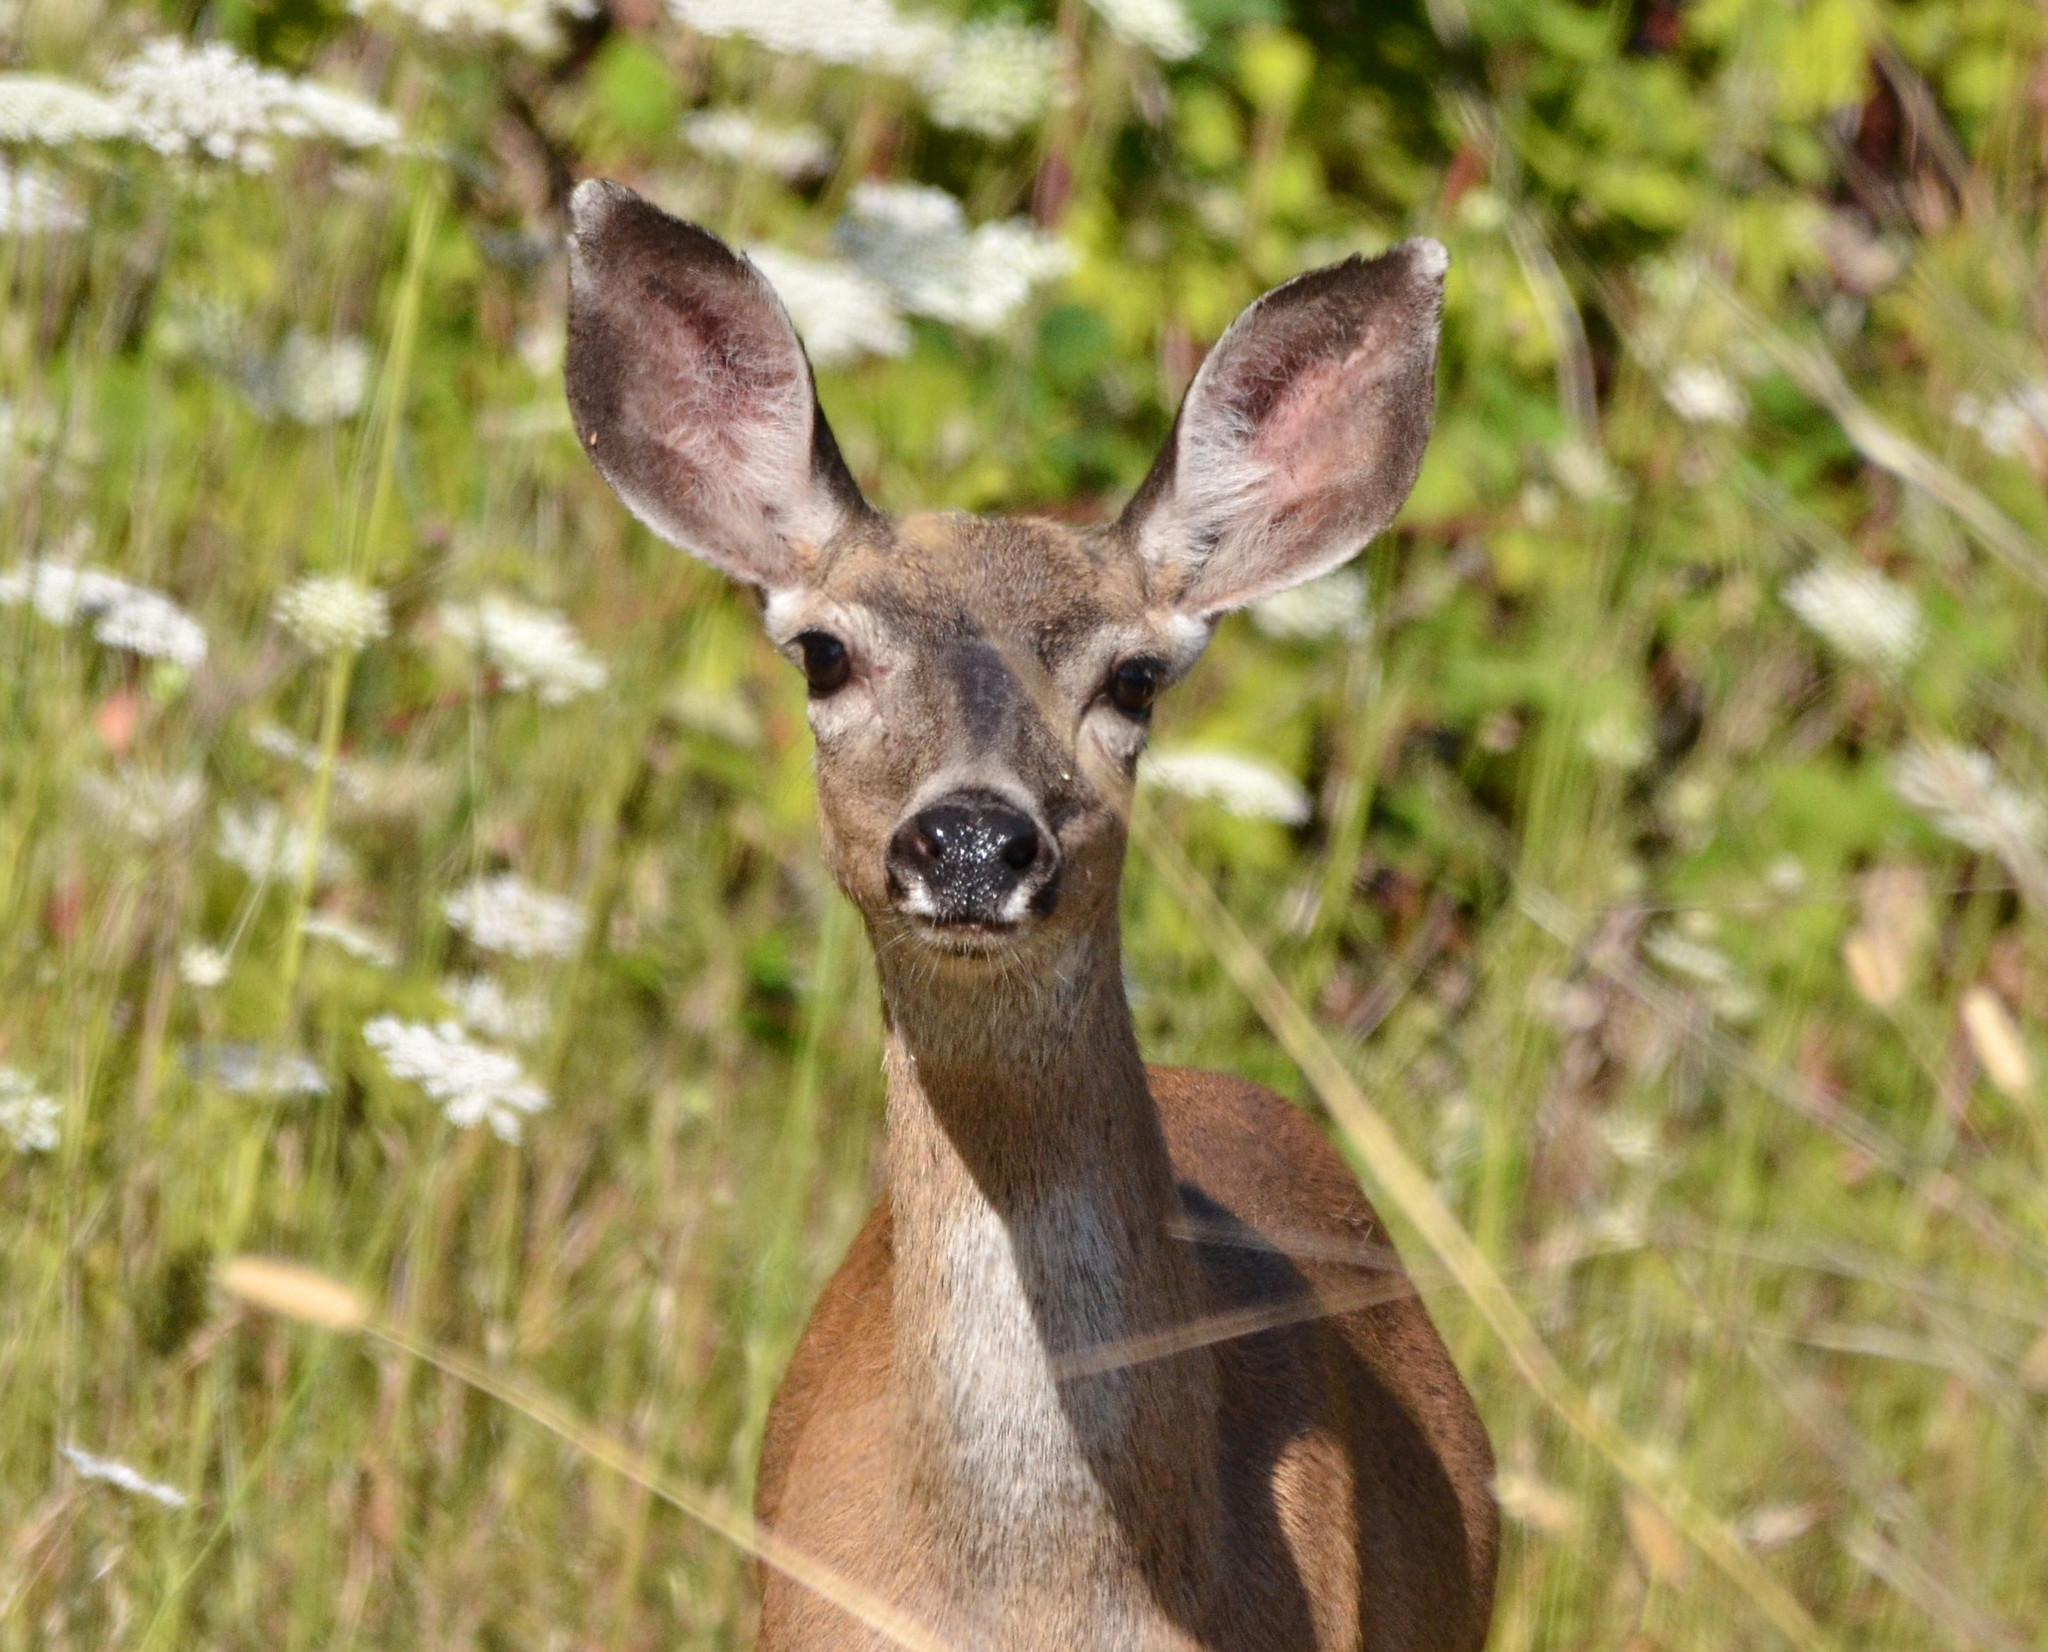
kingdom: Animalia
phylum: Chordata
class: Mammalia
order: Artiodactyla
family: Cervidae
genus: Odocoileus
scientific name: Odocoileus hemionus
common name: Mule deer
